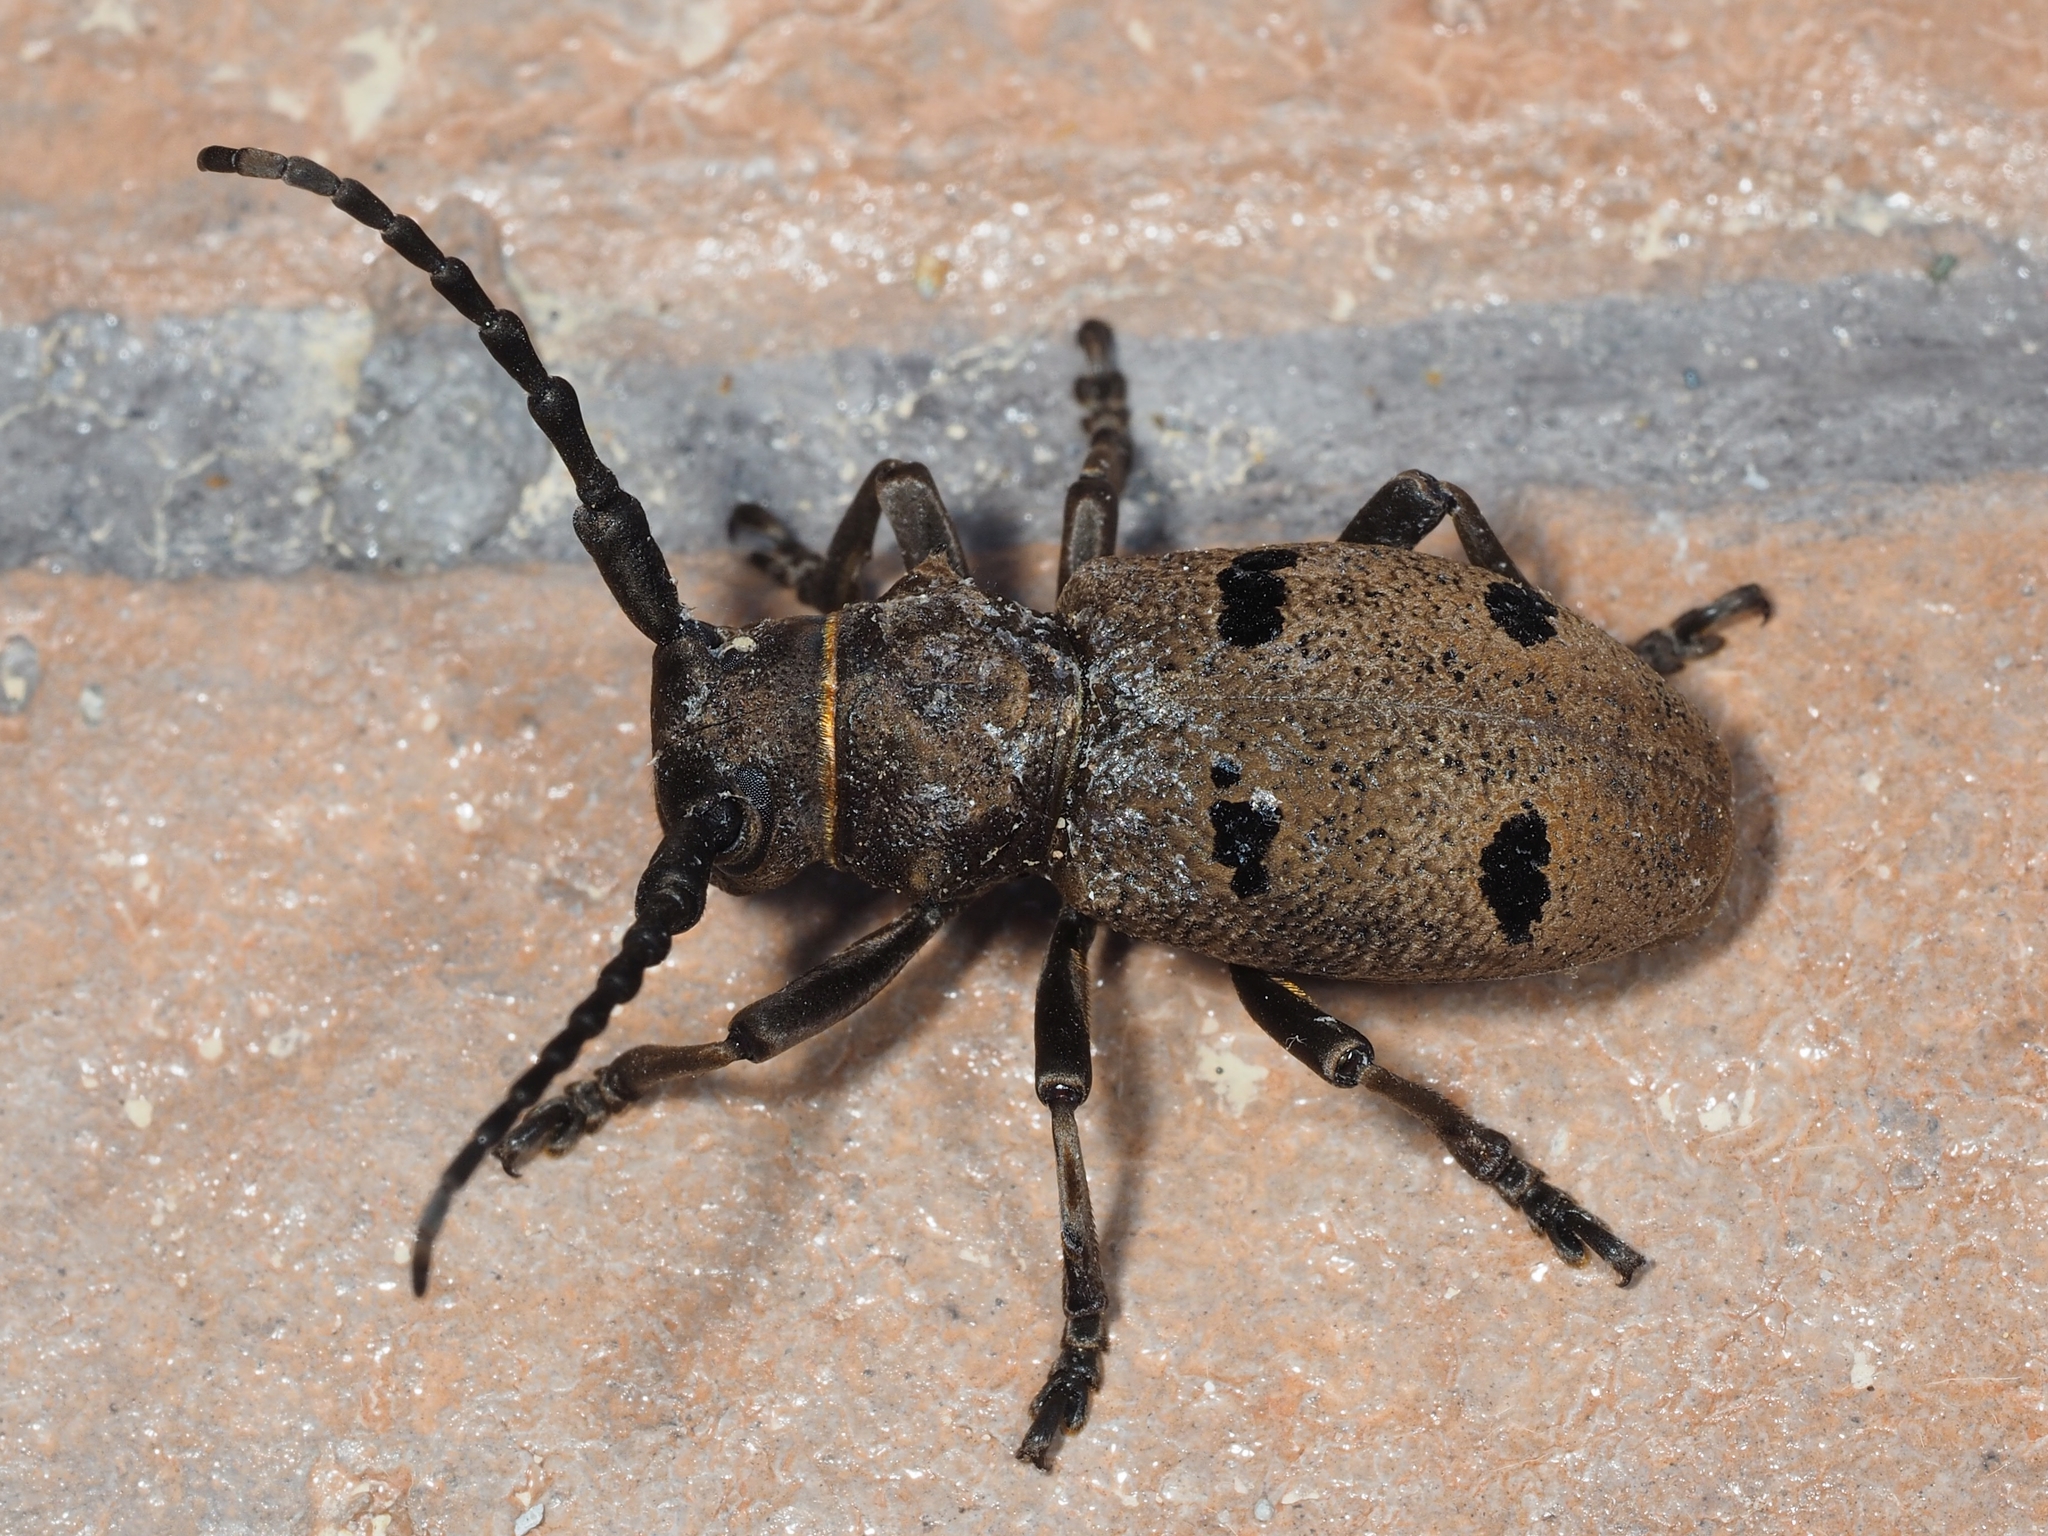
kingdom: Animalia
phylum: Arthropoda
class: Insecta
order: Coleoptera
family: Cerambycidae
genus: Herophila
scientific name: Herophila tristis
